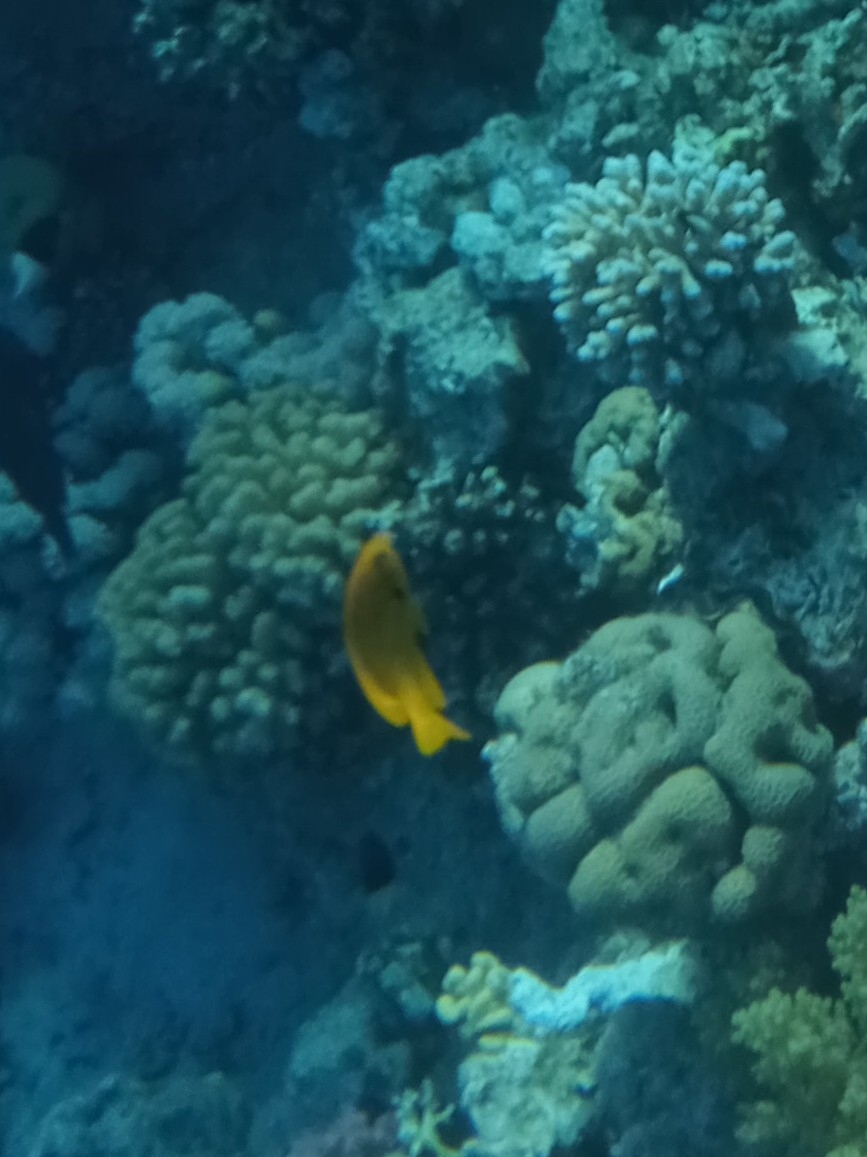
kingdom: Animalia
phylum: Chordata
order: Perciformes
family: Pomacentridae
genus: Pomacentrus
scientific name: Pomacentrus sulfureus
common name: Sulfur damsel
